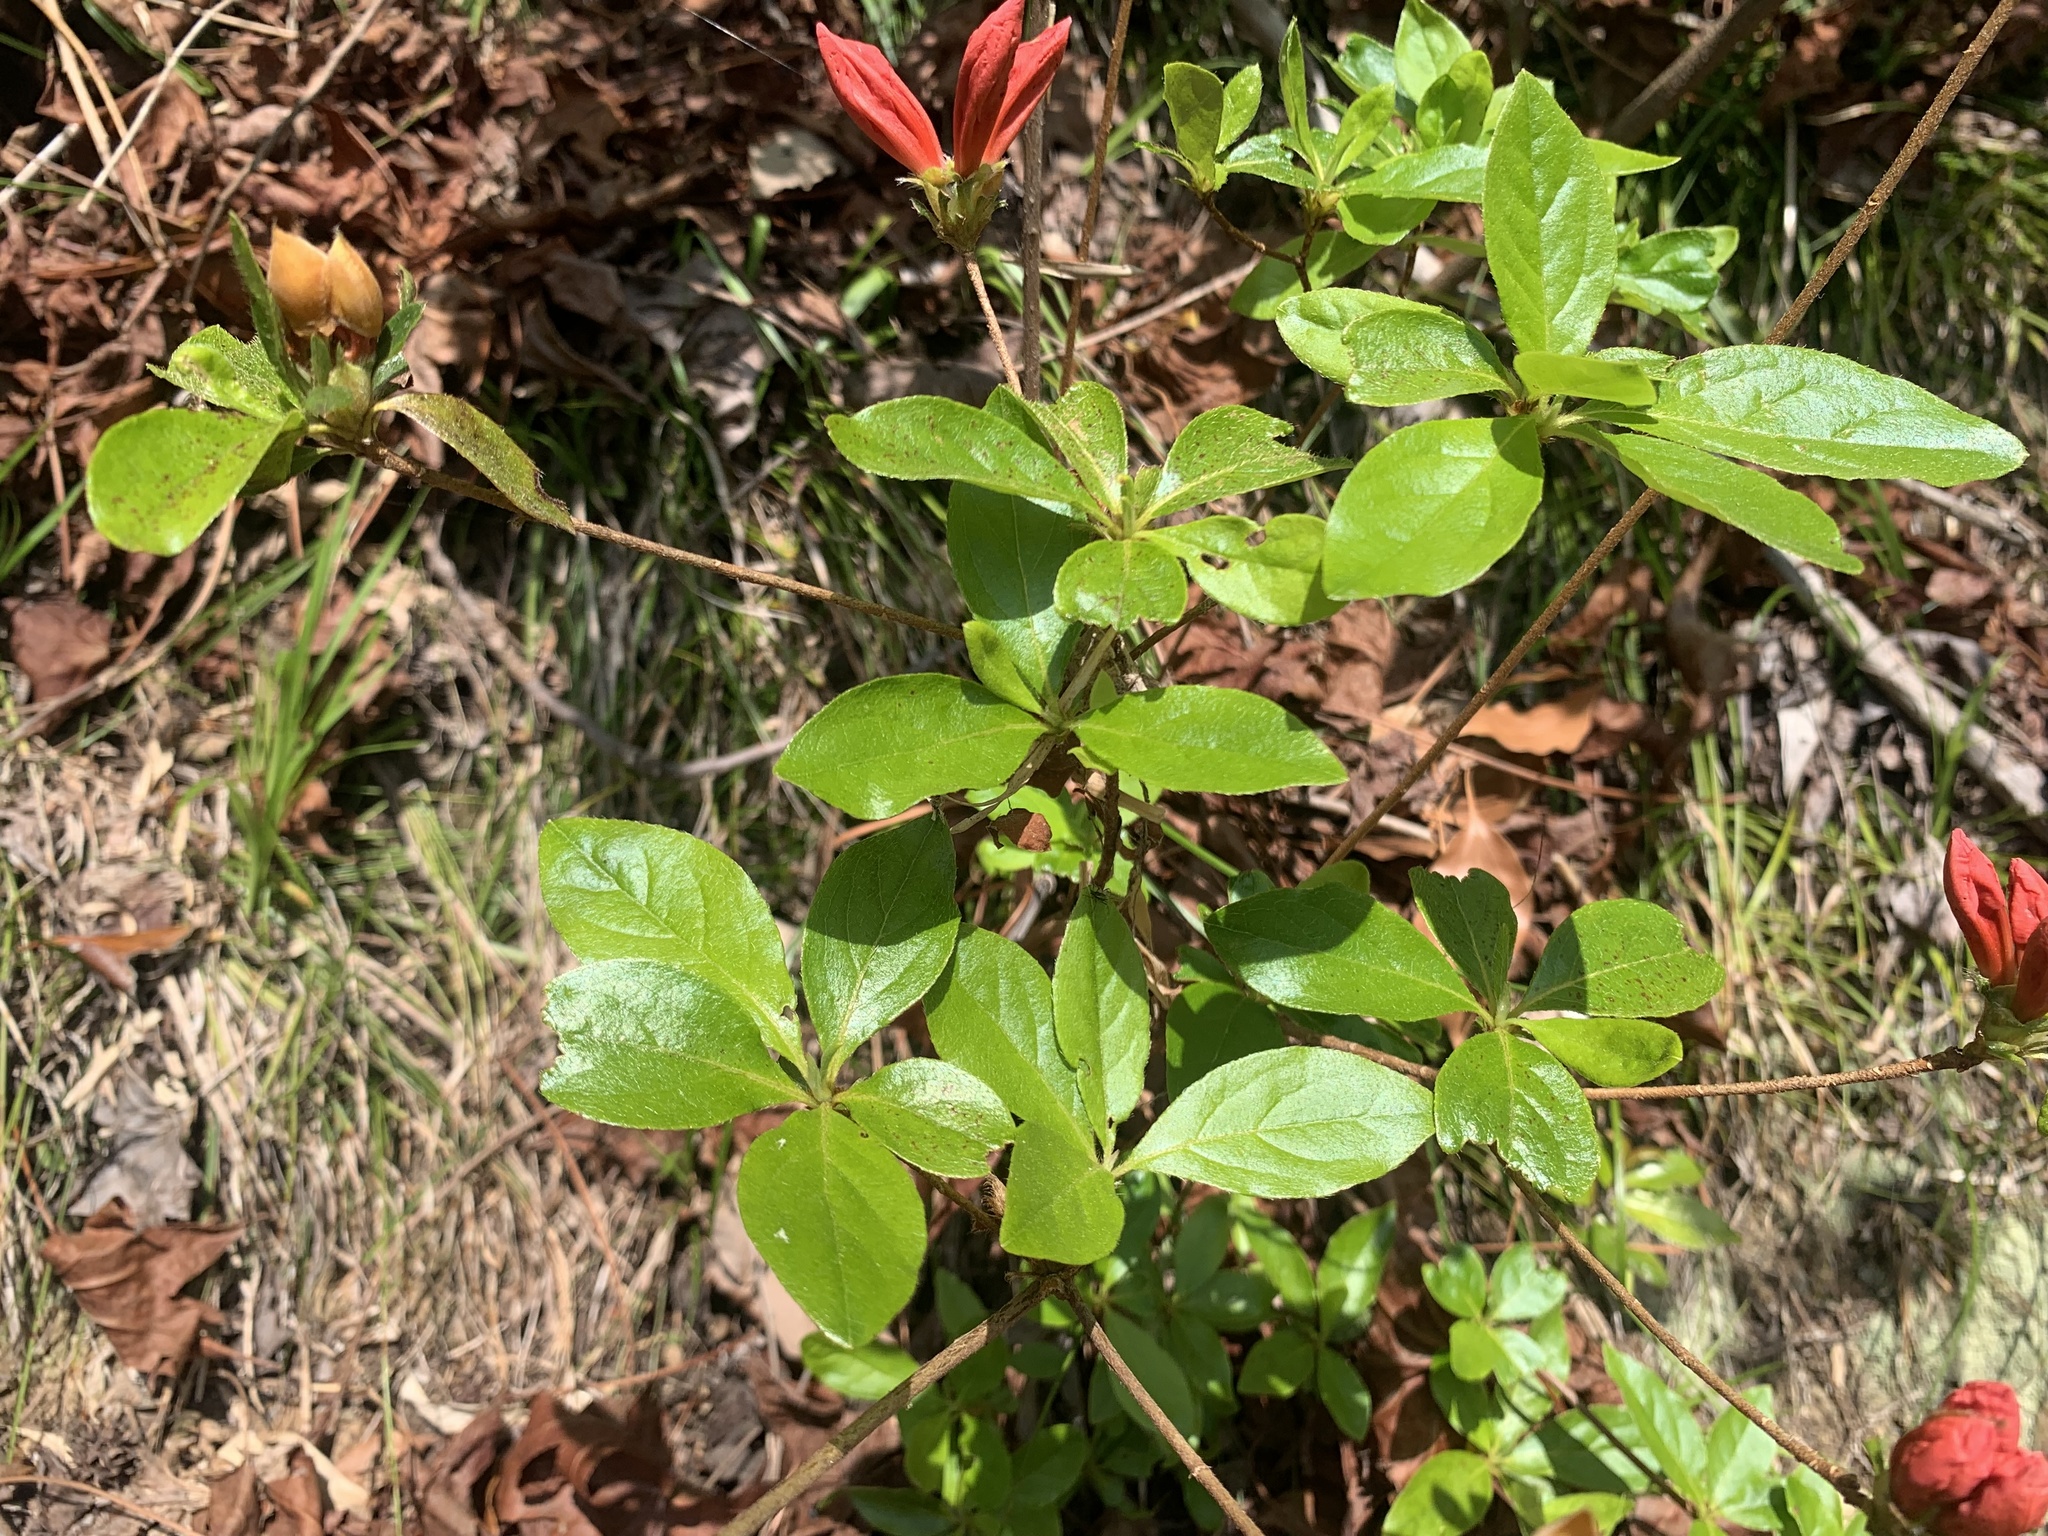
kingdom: Plantae
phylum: Tracheophyta
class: Magnoliopsida
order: Ericales
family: Ericaceae
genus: Rhododendron
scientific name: Rhododendron kaempferi
